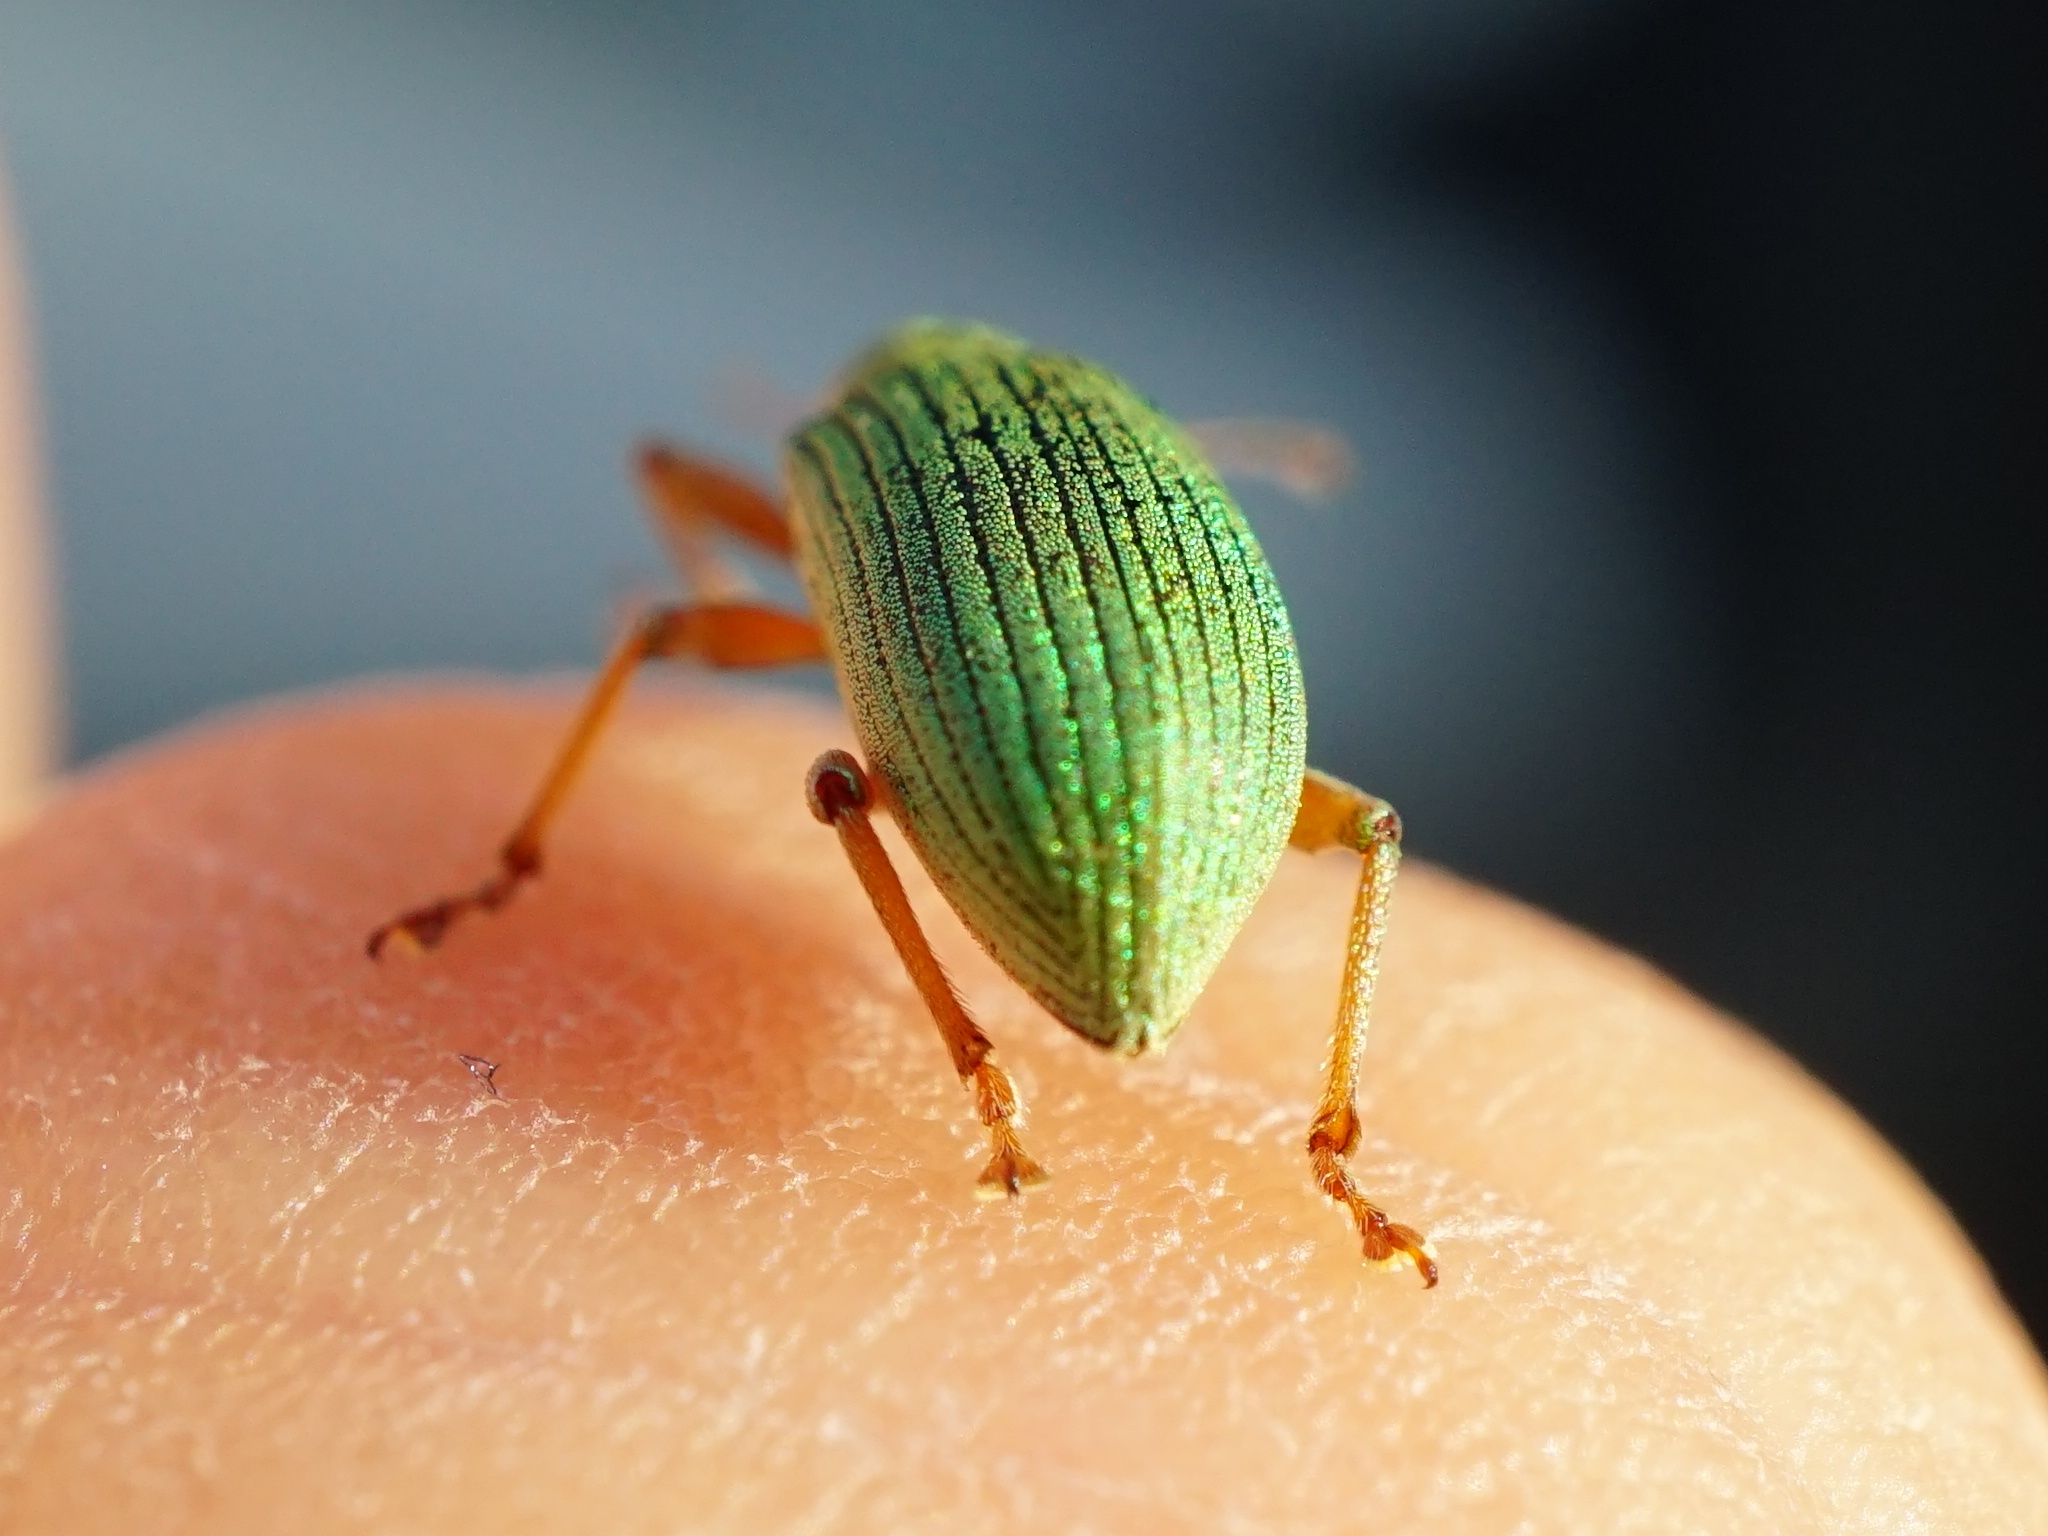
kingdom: Animalia
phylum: Arthropoda
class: Insecta
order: Coleoptera
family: Curculionidae
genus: Polydrusus
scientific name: Polydrusus formosus
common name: Weevil
